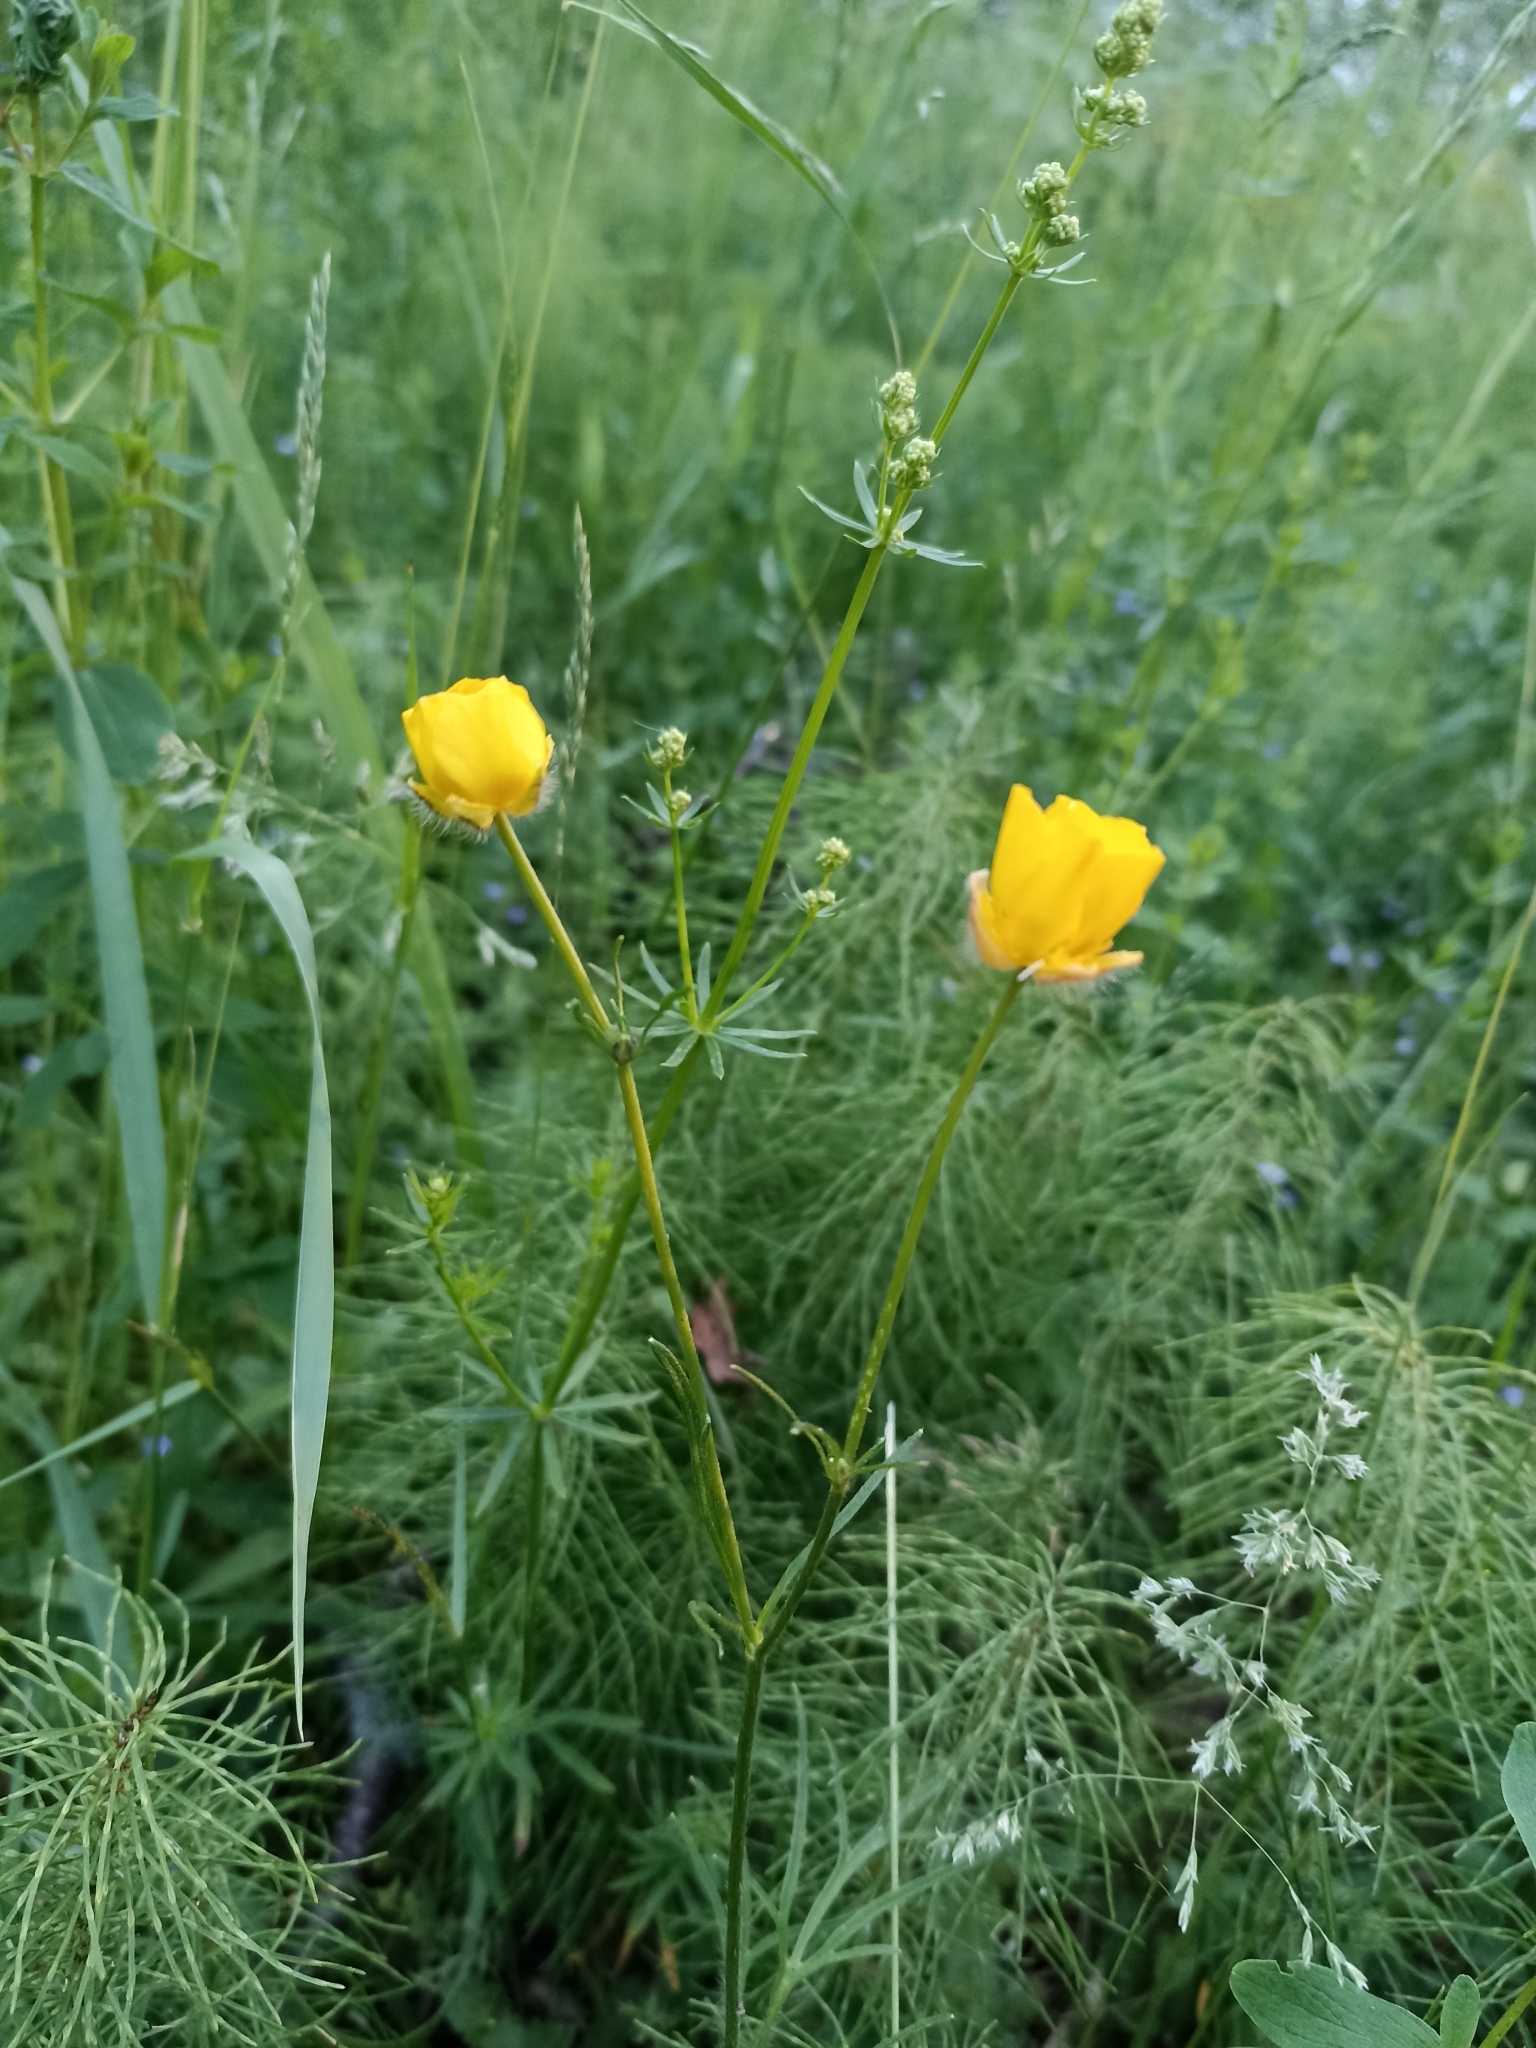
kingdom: Plantae
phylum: Tracheophyta
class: Magnoliopsida
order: Ranunculales
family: Ranunculaceae
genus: Ranunculus
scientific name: Ranunculus polyanthemos
